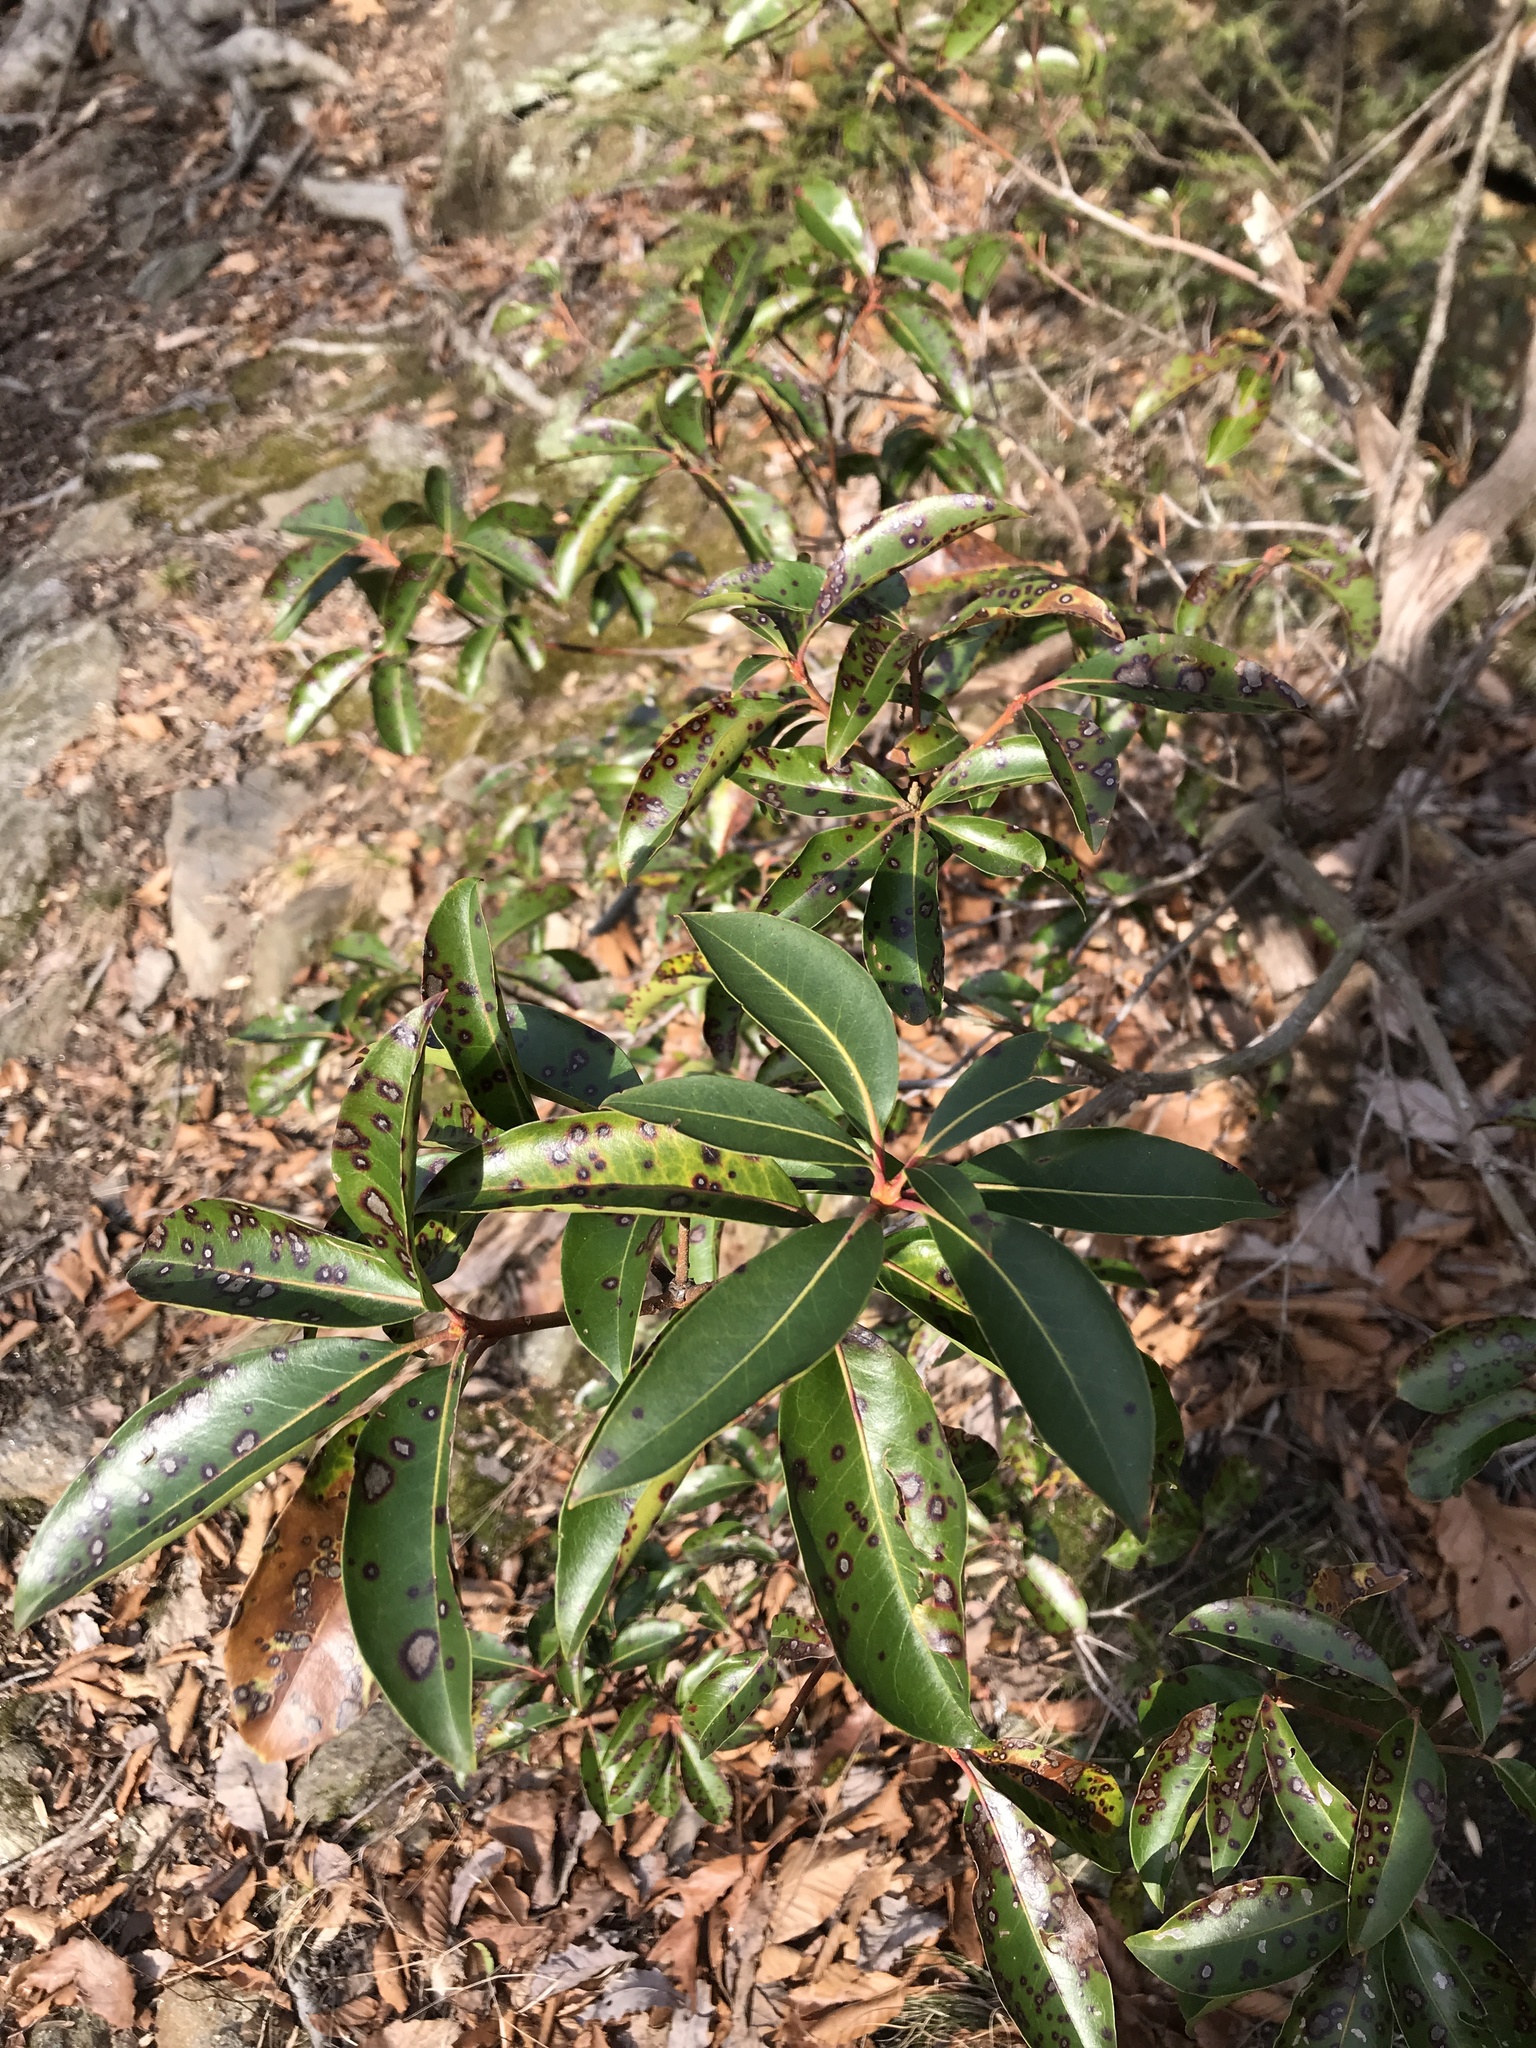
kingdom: Plantae
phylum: Tracheophyta
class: Magnoliopsida
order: Ericales
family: Ericaceae
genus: Kalmia
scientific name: Kalmia latifolia
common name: Mountain-laurel
